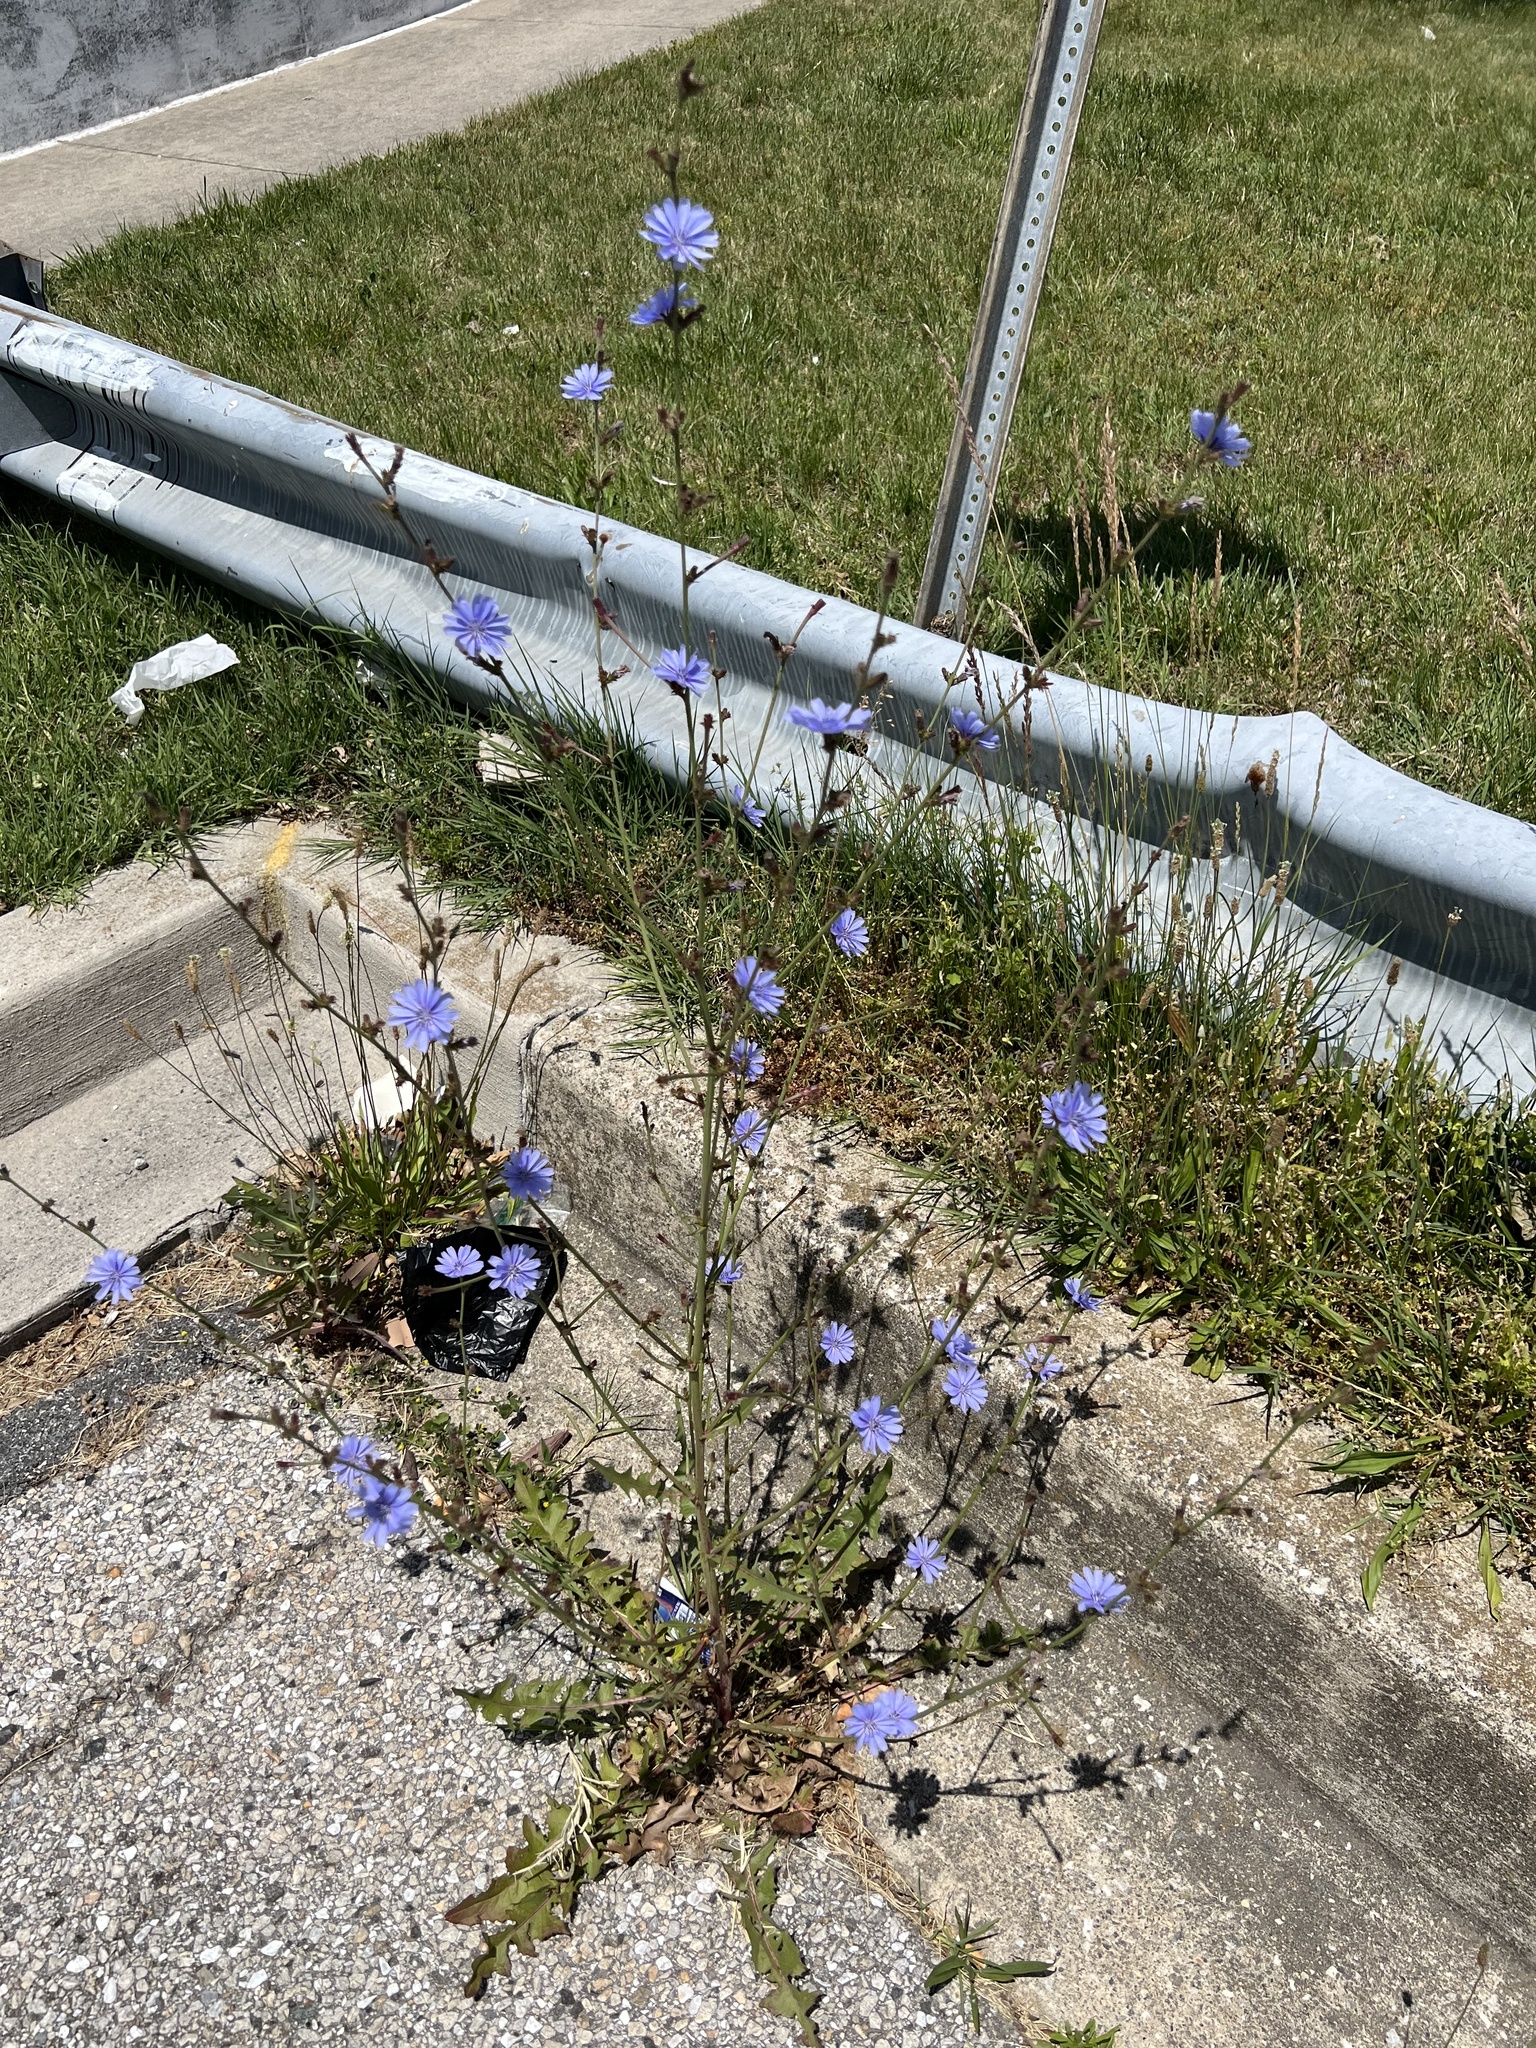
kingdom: Plantae
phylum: Tracheophyta
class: Magnoliopsida
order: Asterales
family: Asteraceae
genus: Cichorium
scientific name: Cichorium intybus
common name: Chicory
